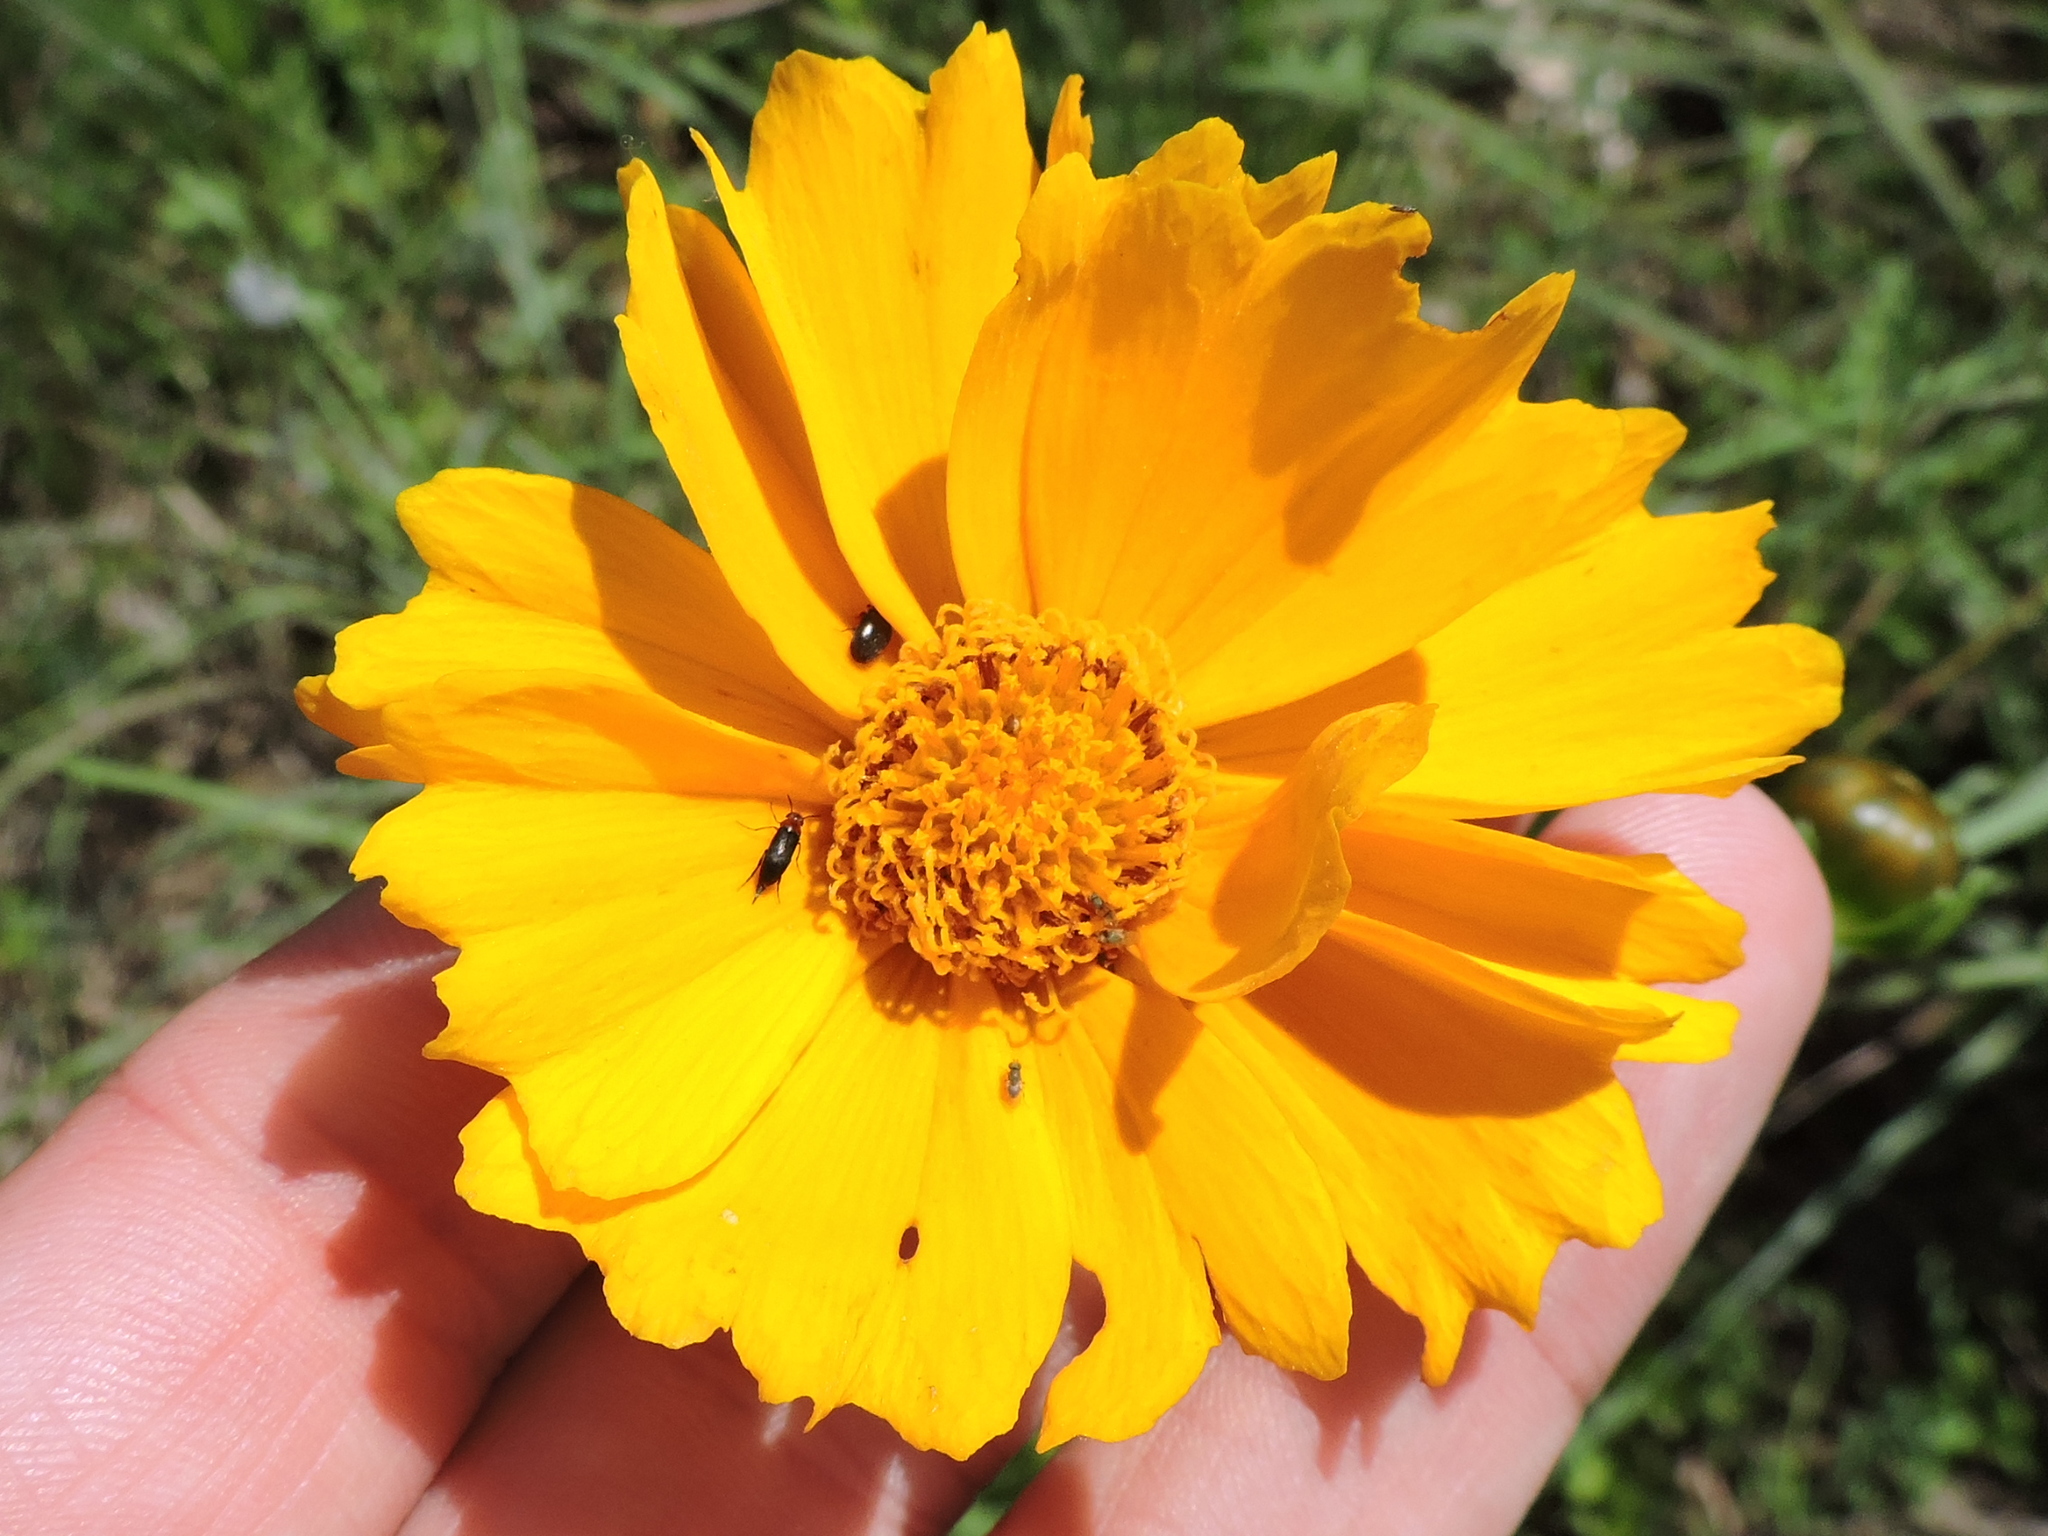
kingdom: Plantae
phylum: Tracheophyta
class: Magnoliopsida
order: Asterales
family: Asteraceae
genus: Coreopsis
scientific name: Coreopsis grandiflora
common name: Large-flowered tickseed
